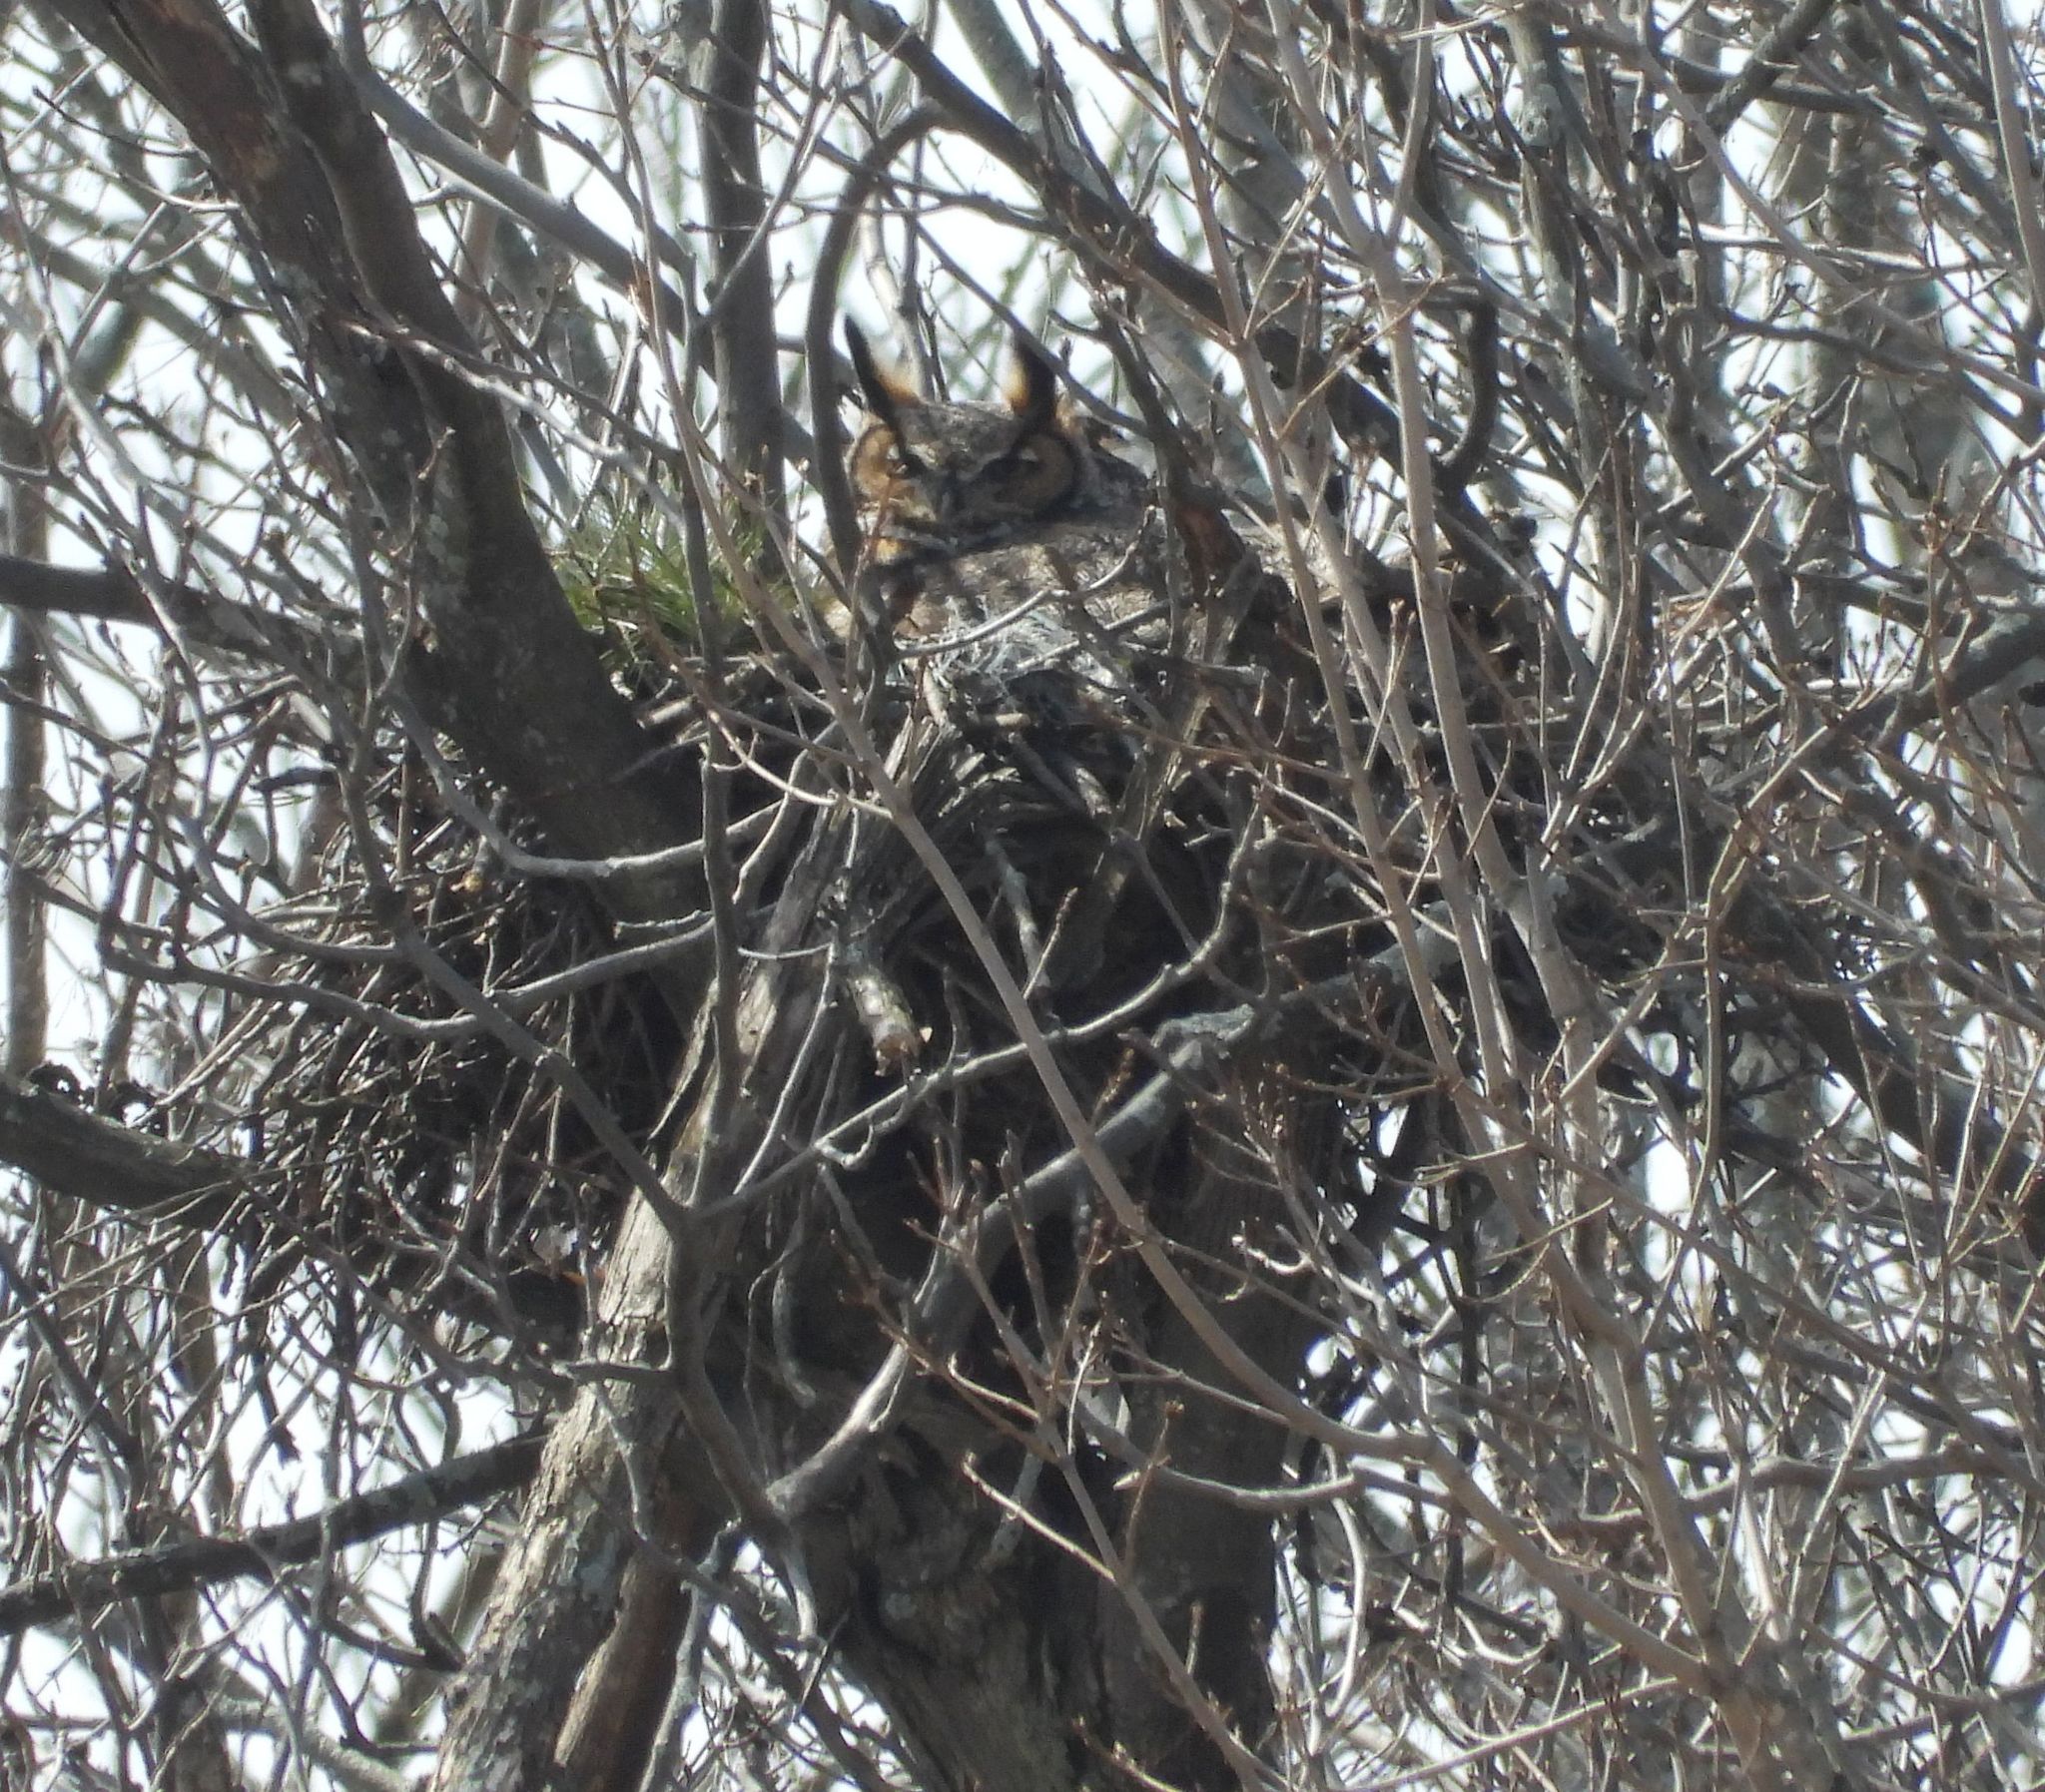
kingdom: Animalia
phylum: Chordata
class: Aves
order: Strigiformes
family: Strigidae
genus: Bubo
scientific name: Bubo virginianus
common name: Great horned owl
